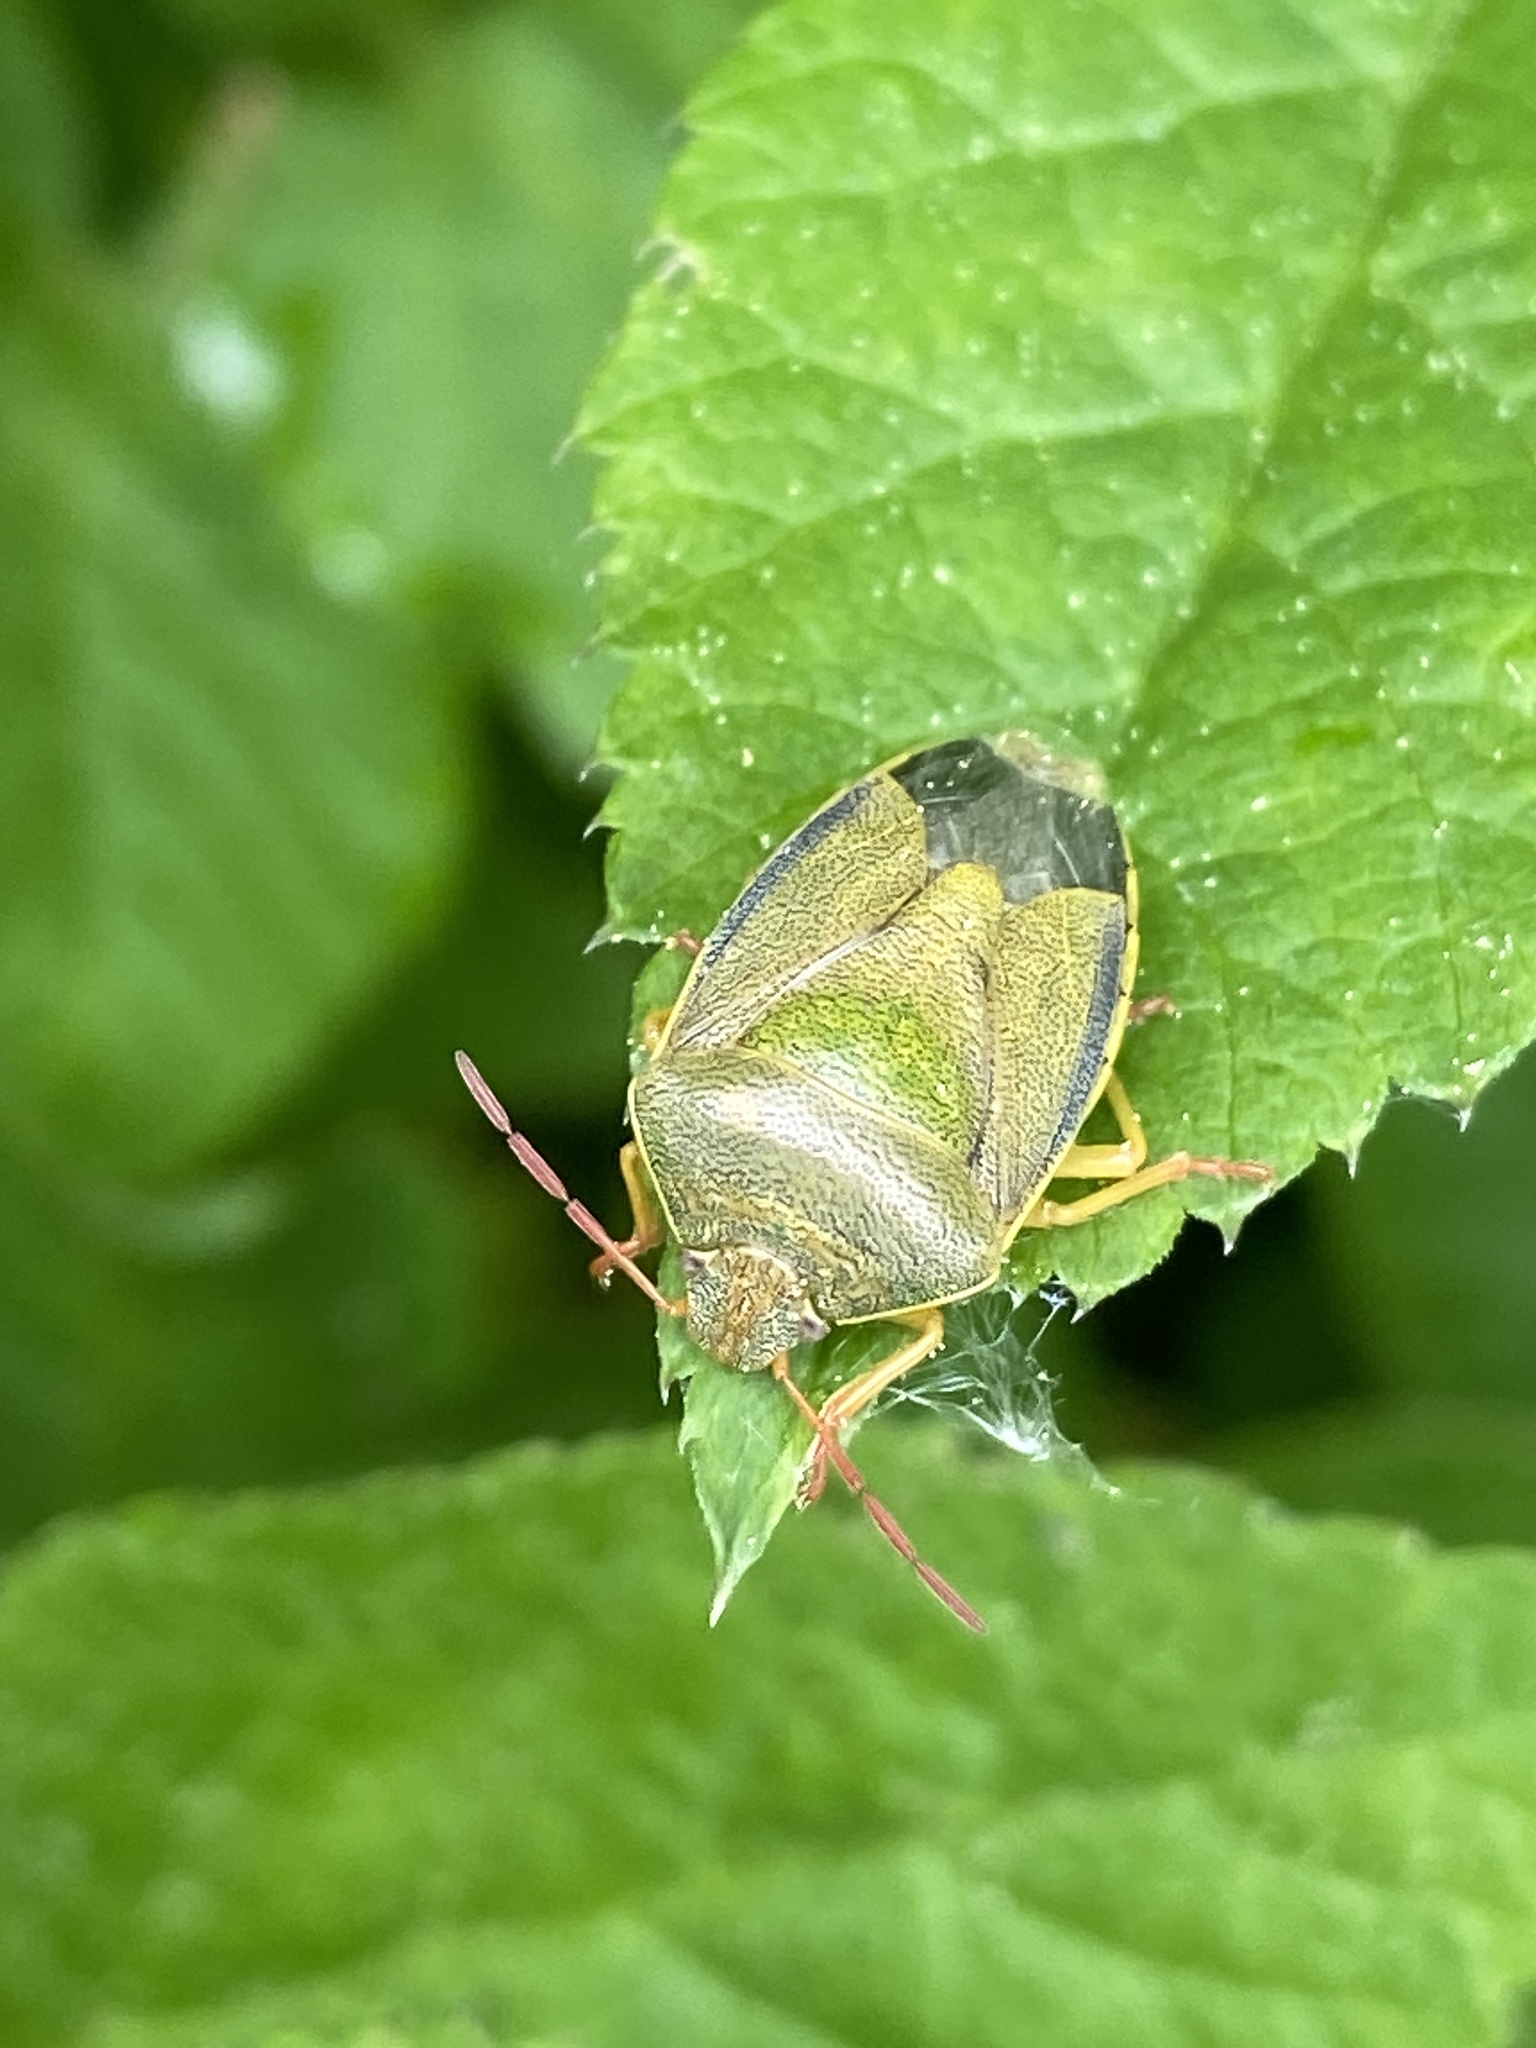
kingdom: Animalia
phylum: Arthropoda
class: Insecta
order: Hemiptera
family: Pentatomidae
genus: Piezodorus
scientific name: Piezodorus lituratus
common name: Stink bug
